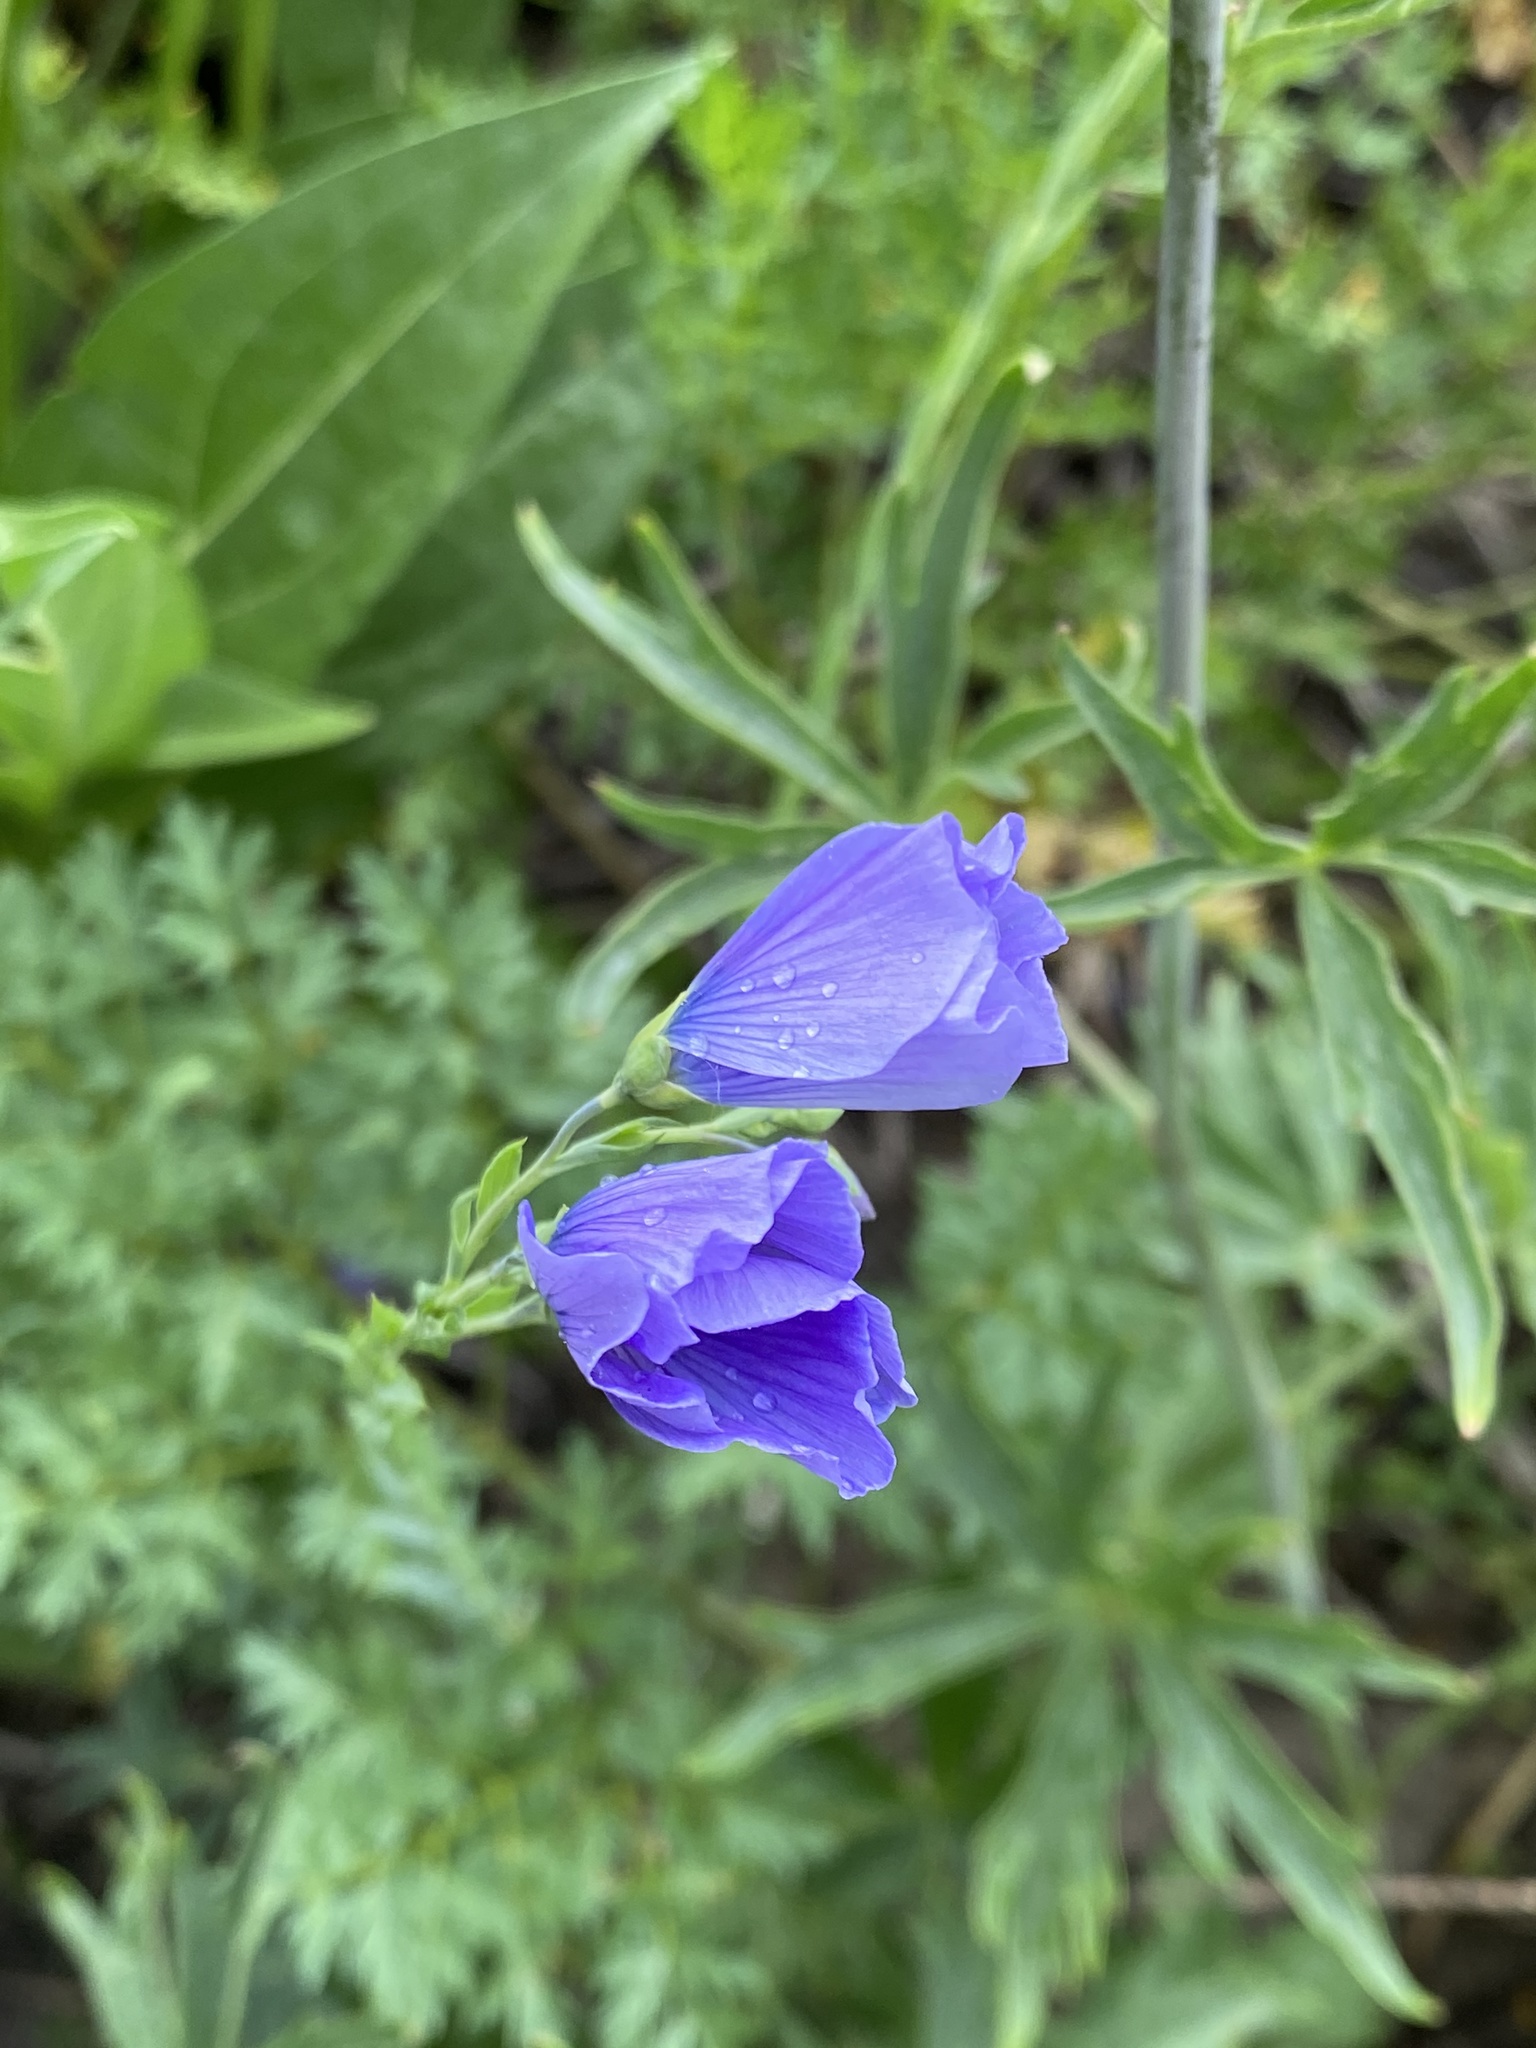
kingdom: Plantae
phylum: Tracheophyta
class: Magnoliopsida
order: Malpighiales
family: Linaceae
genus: Linum
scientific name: Linum lewisii
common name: Prairie flax
